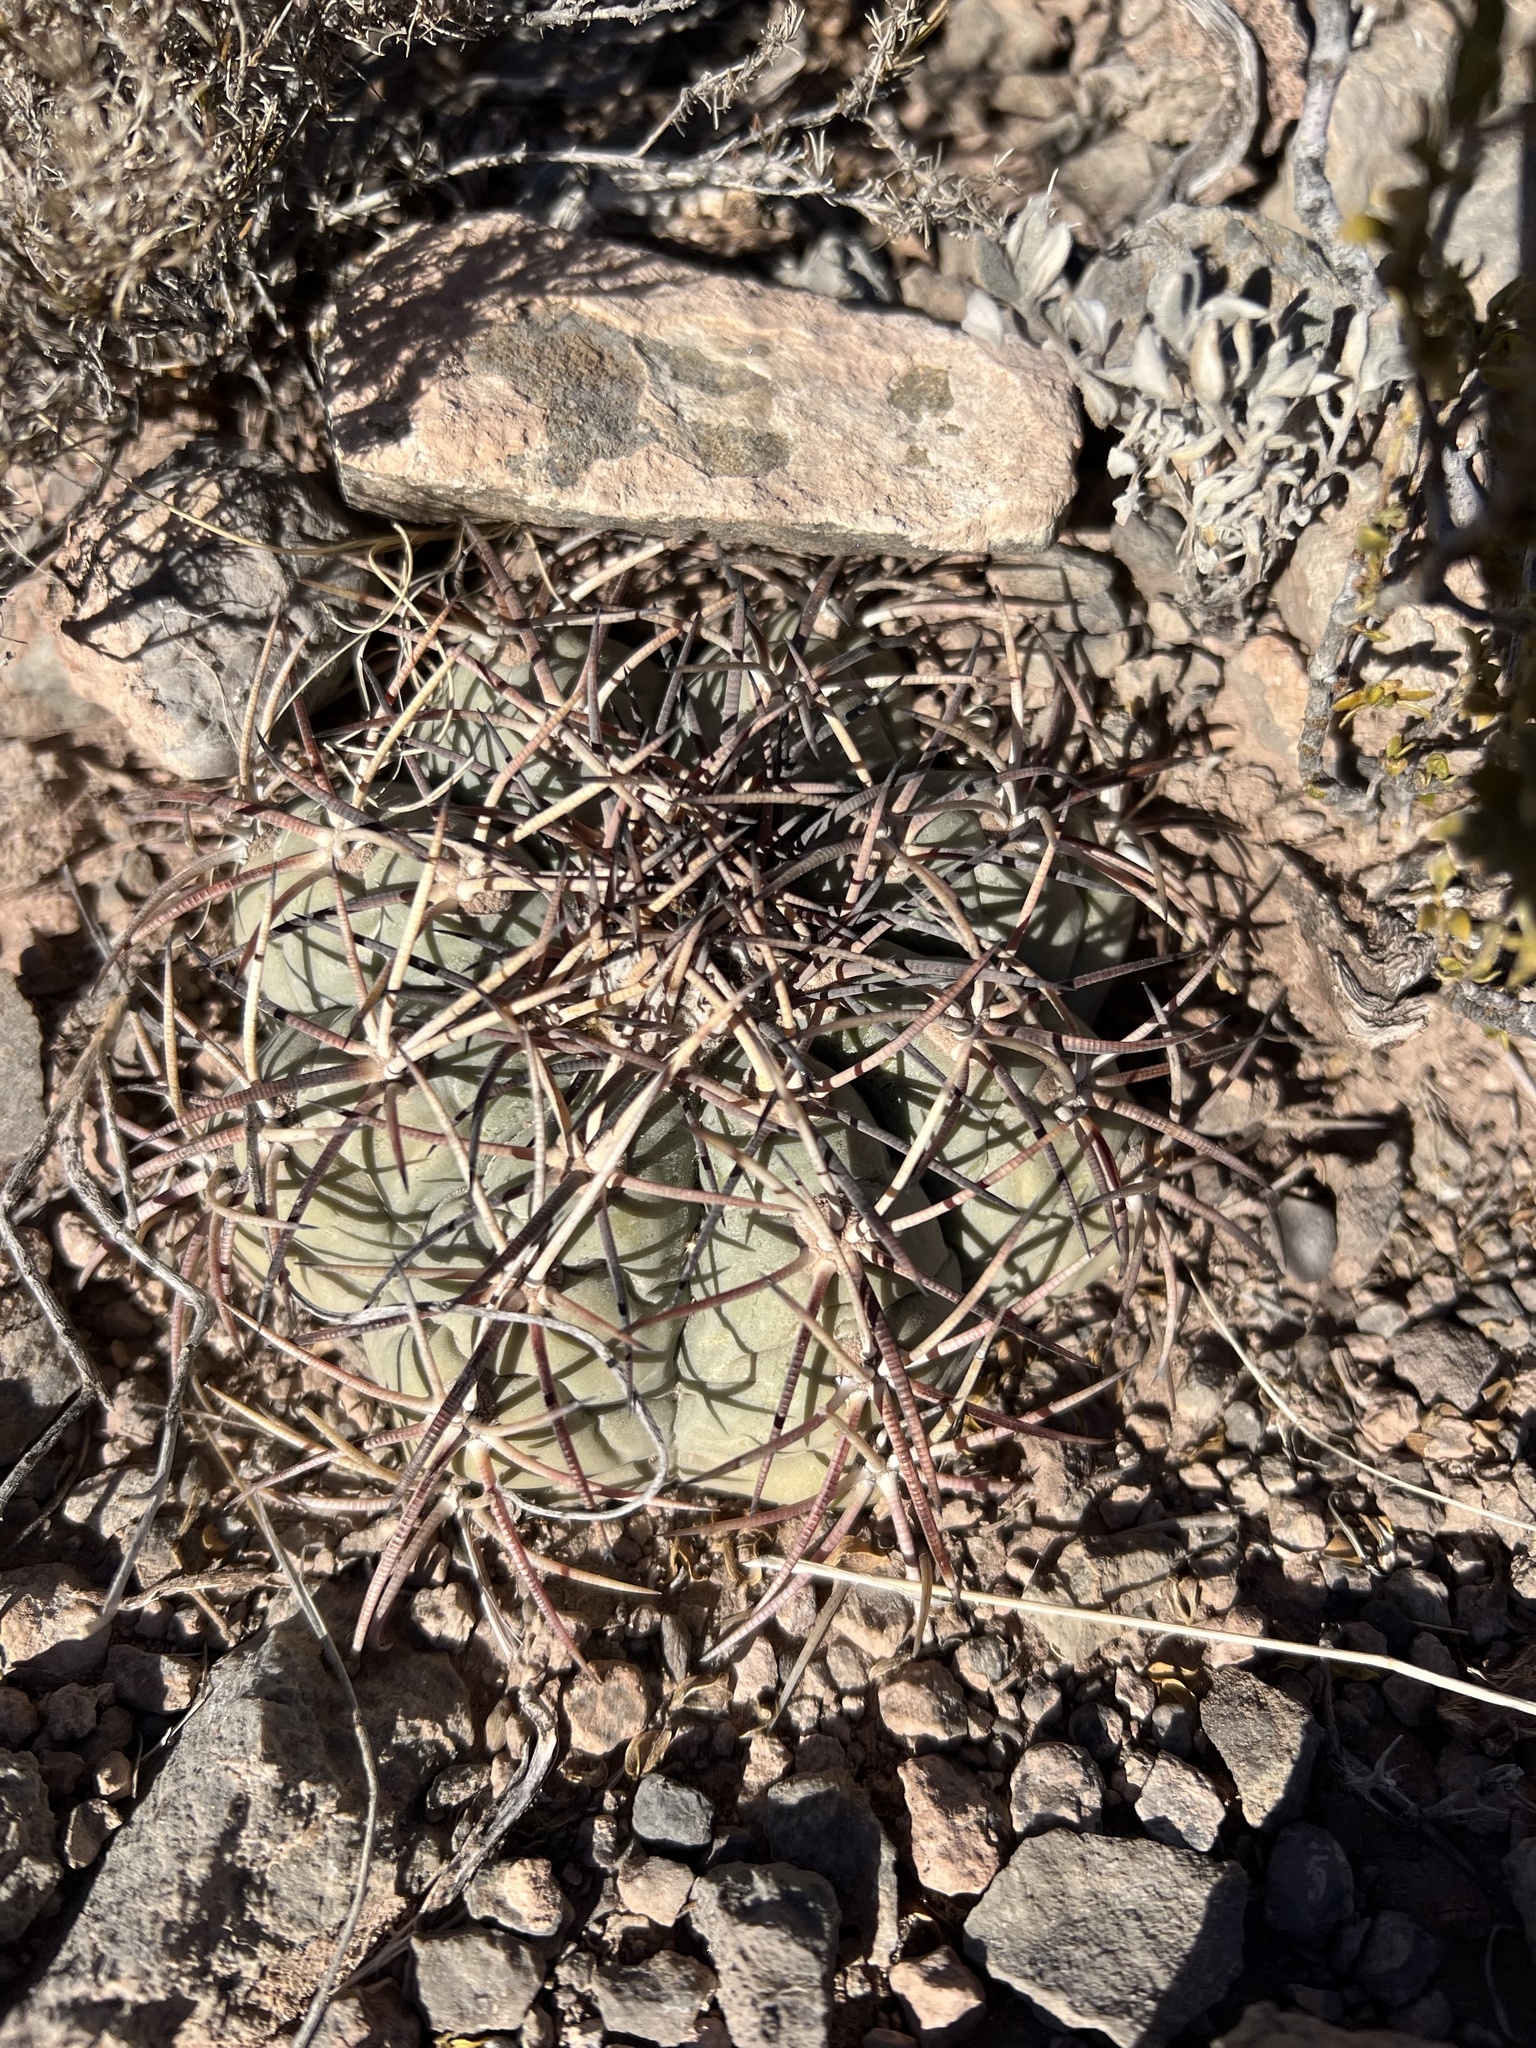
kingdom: Plantae
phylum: Tracheophyta
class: Magnoliopsida
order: Caryophyllales
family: Cactaceae
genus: Echinocactus
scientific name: Echinocactus horizonthalonius
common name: Devilshead
